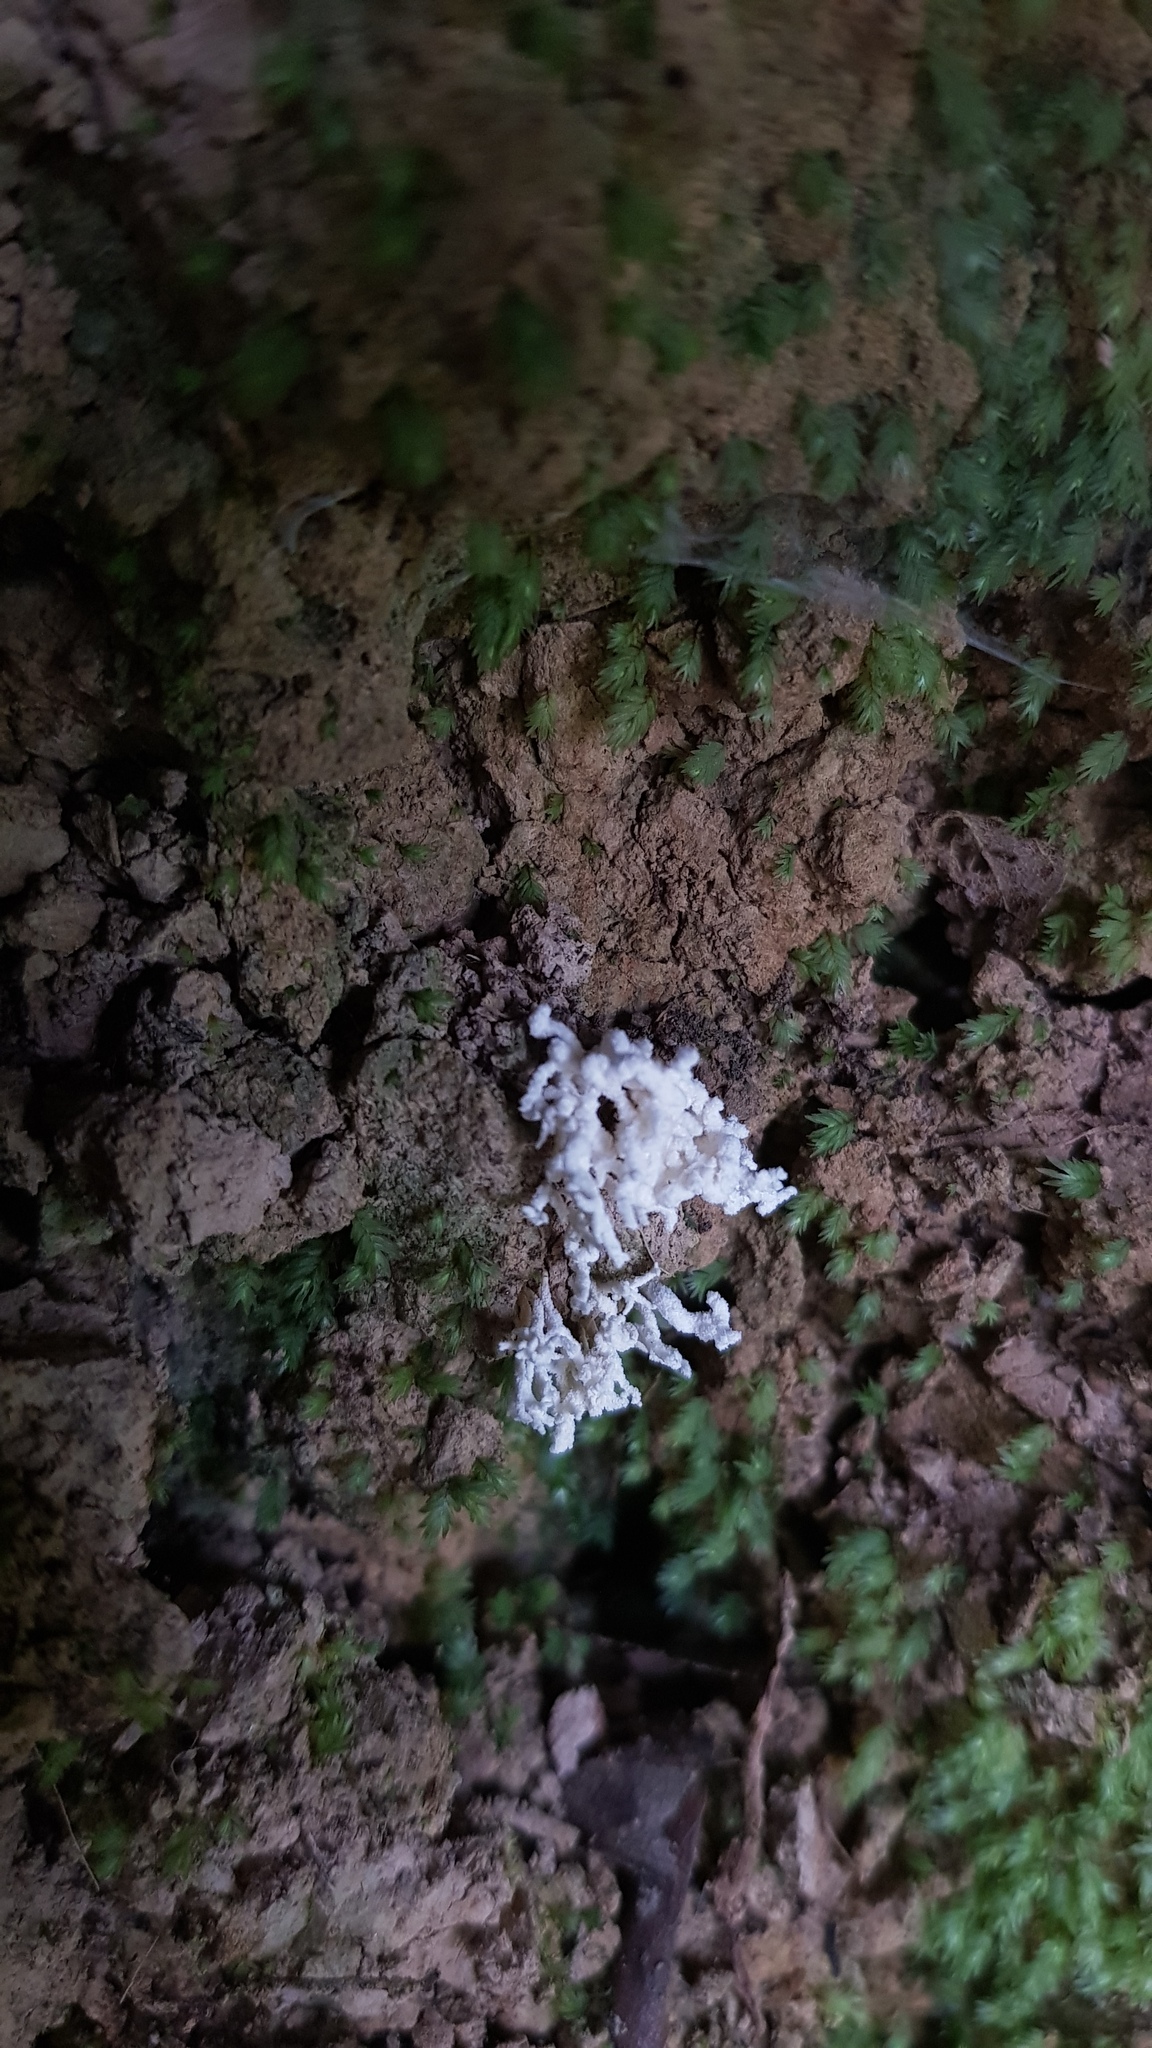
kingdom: Fungi
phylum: Ascomycota
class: Sordariomycetes
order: Hypocreales
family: Cordycipitaceae
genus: Cordyceps
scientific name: Cordyceps tenuipes
